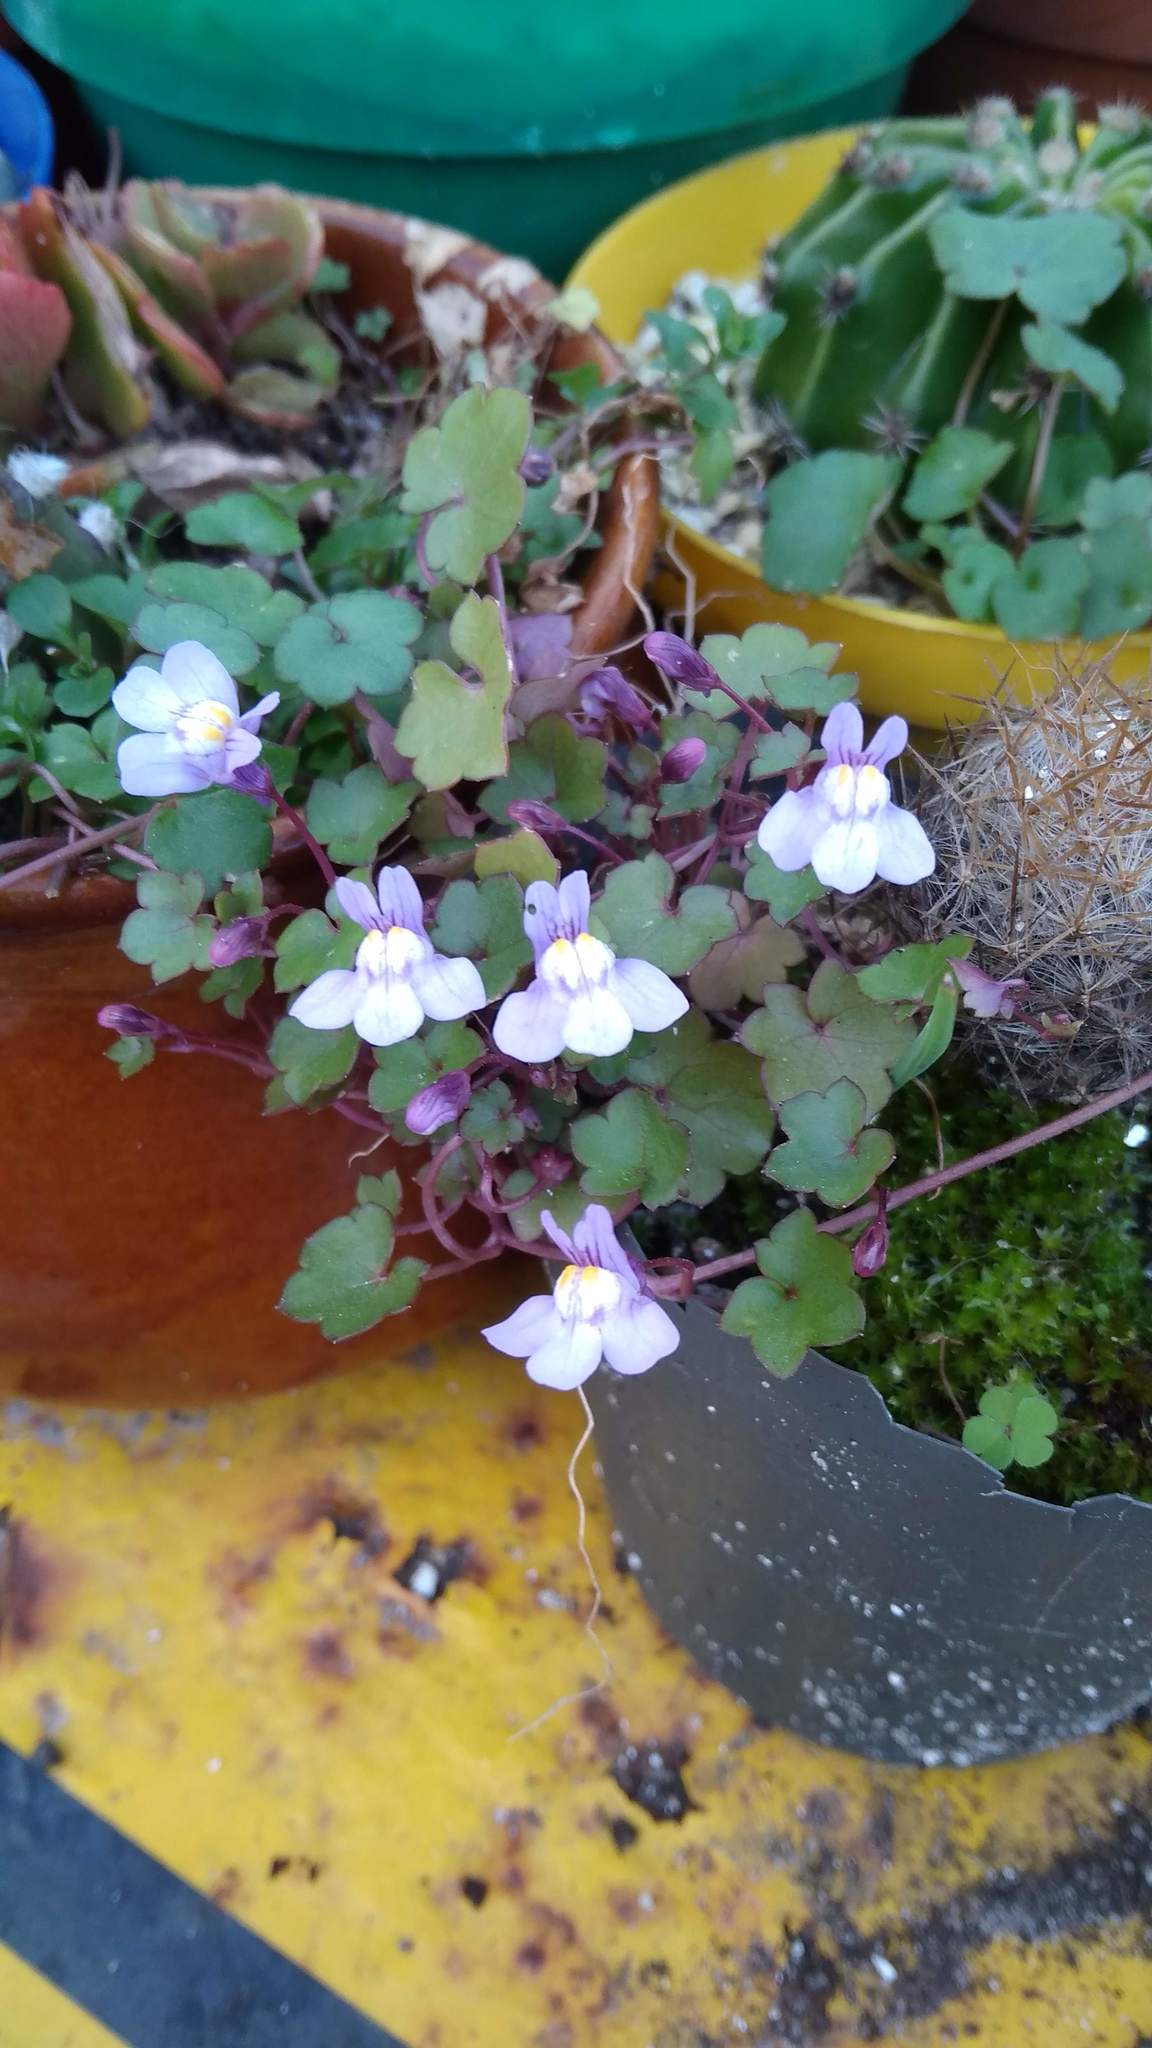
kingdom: Plantae
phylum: Tracheophyta
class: Magnoliopsida
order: Lamiales
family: Plantaginaceae
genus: Cymbalaria
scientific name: Cymbalaria muralis
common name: Ivy-leaved toadflax
